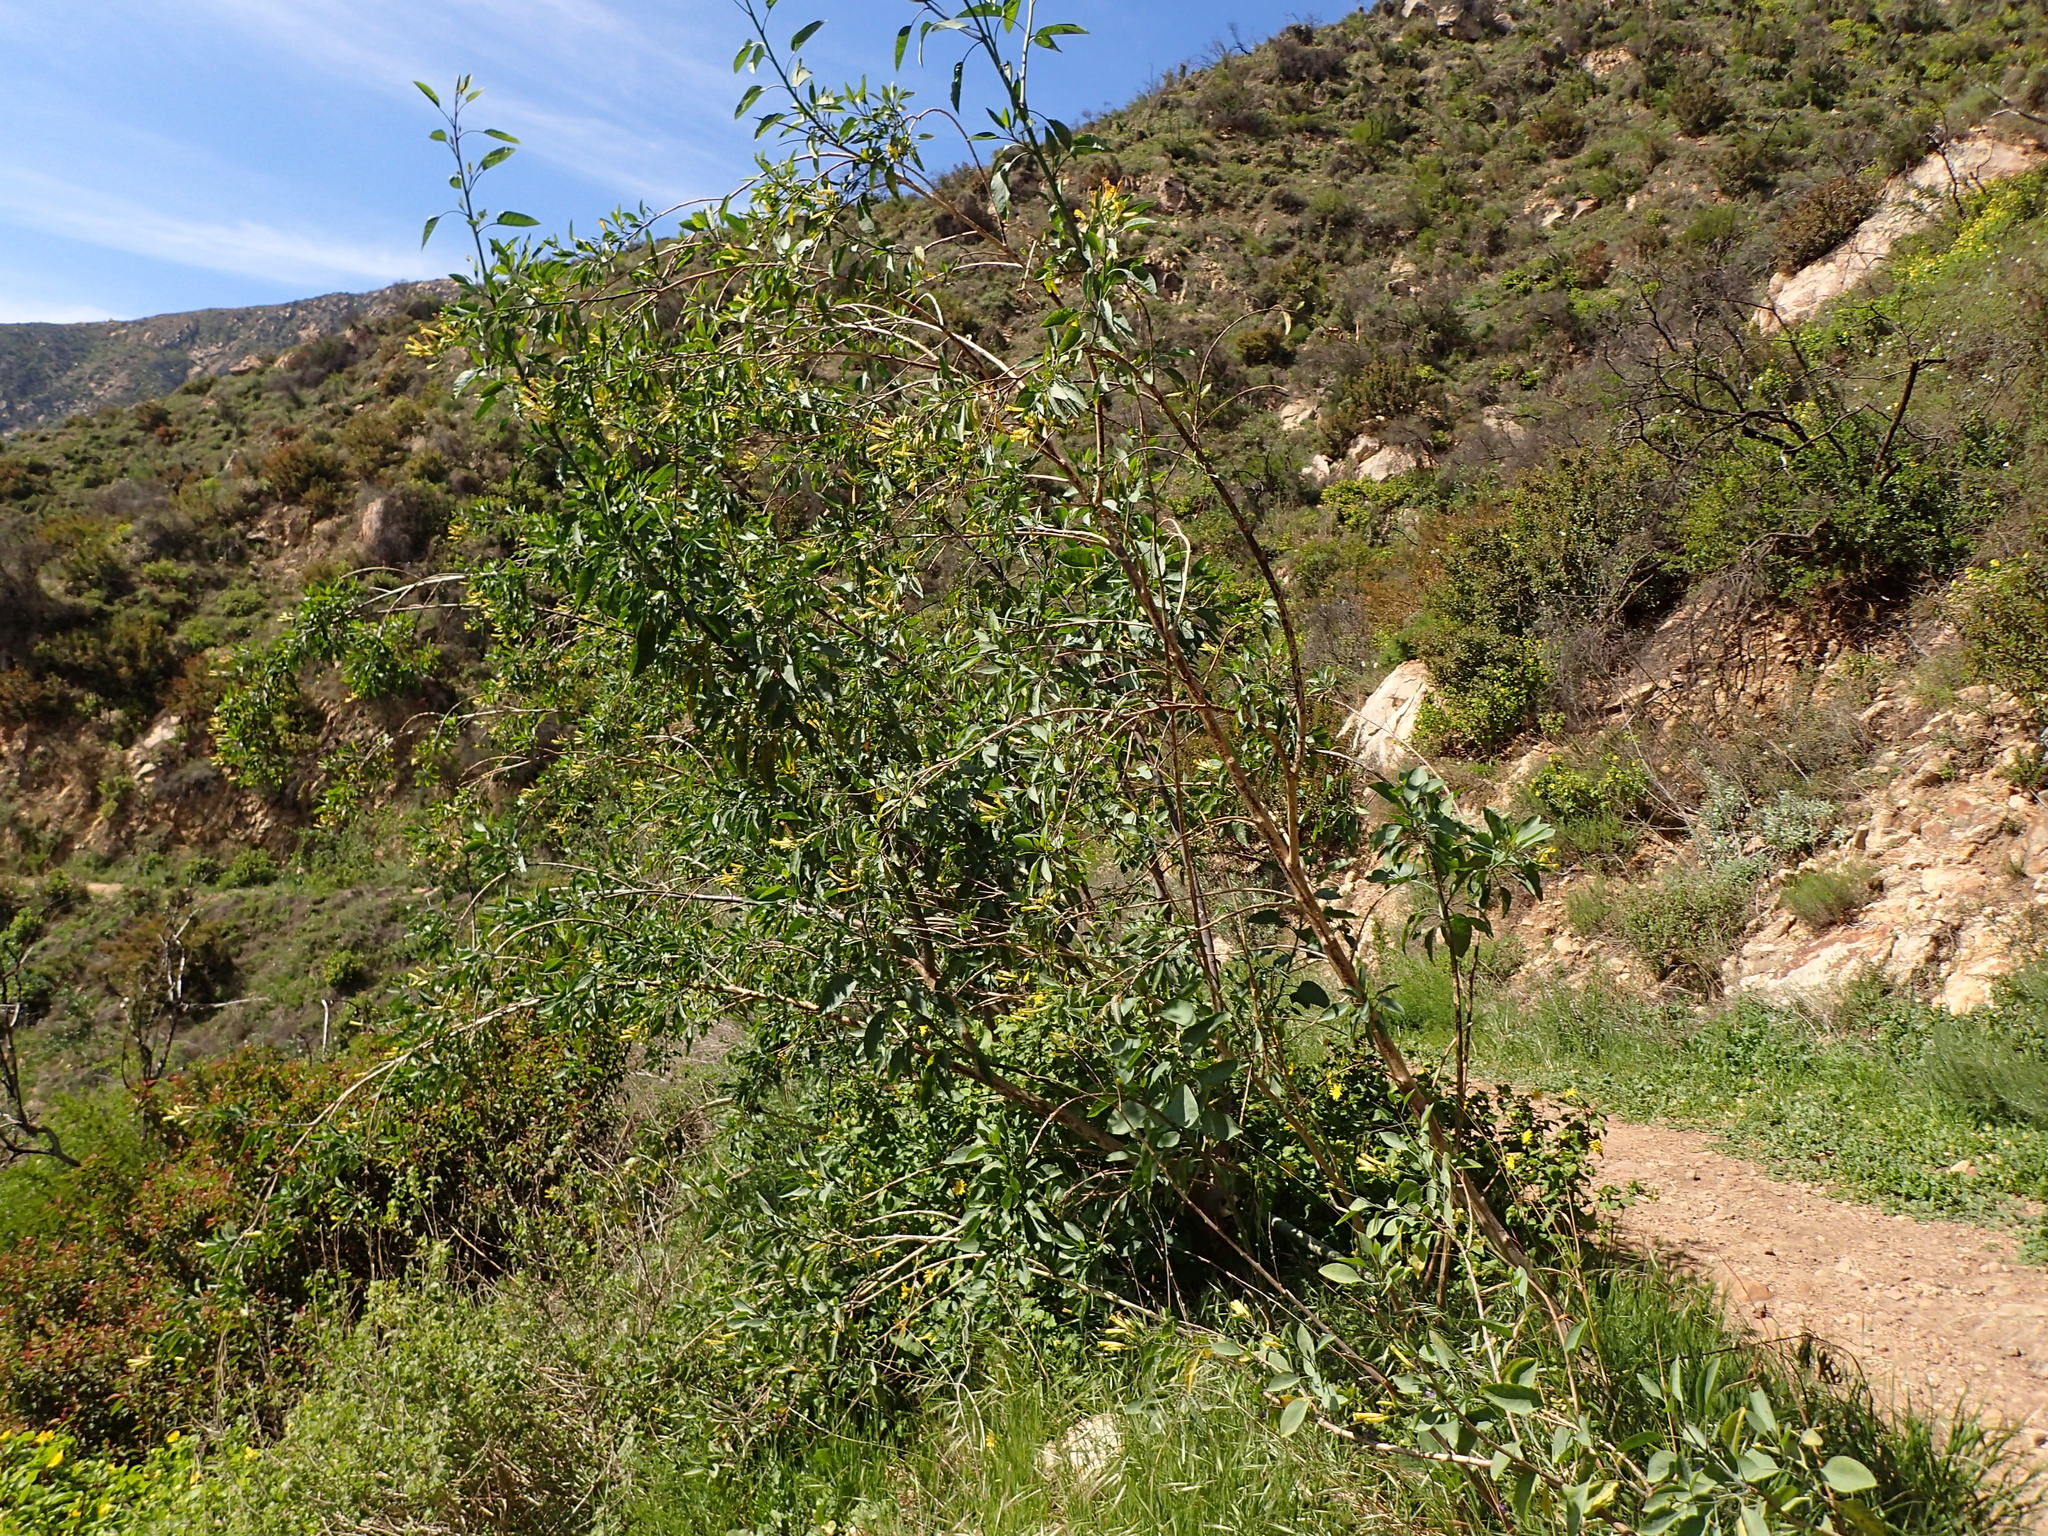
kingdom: Plantae
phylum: Tracheophyta
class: Magnoliopsida
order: Solanales
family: Solanaceae
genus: Nicotiana
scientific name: Nicotiana glauca
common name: Tree tobacco
